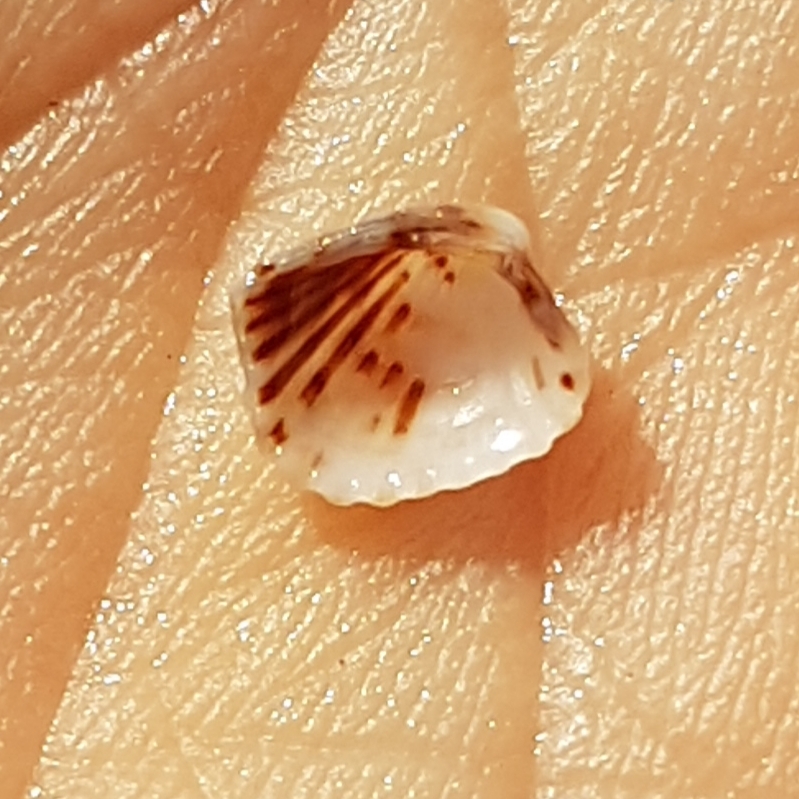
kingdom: Animalia
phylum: Mollusca
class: Bivalvia
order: Carditida
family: Carditidae
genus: Glans
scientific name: Glans trapezia
